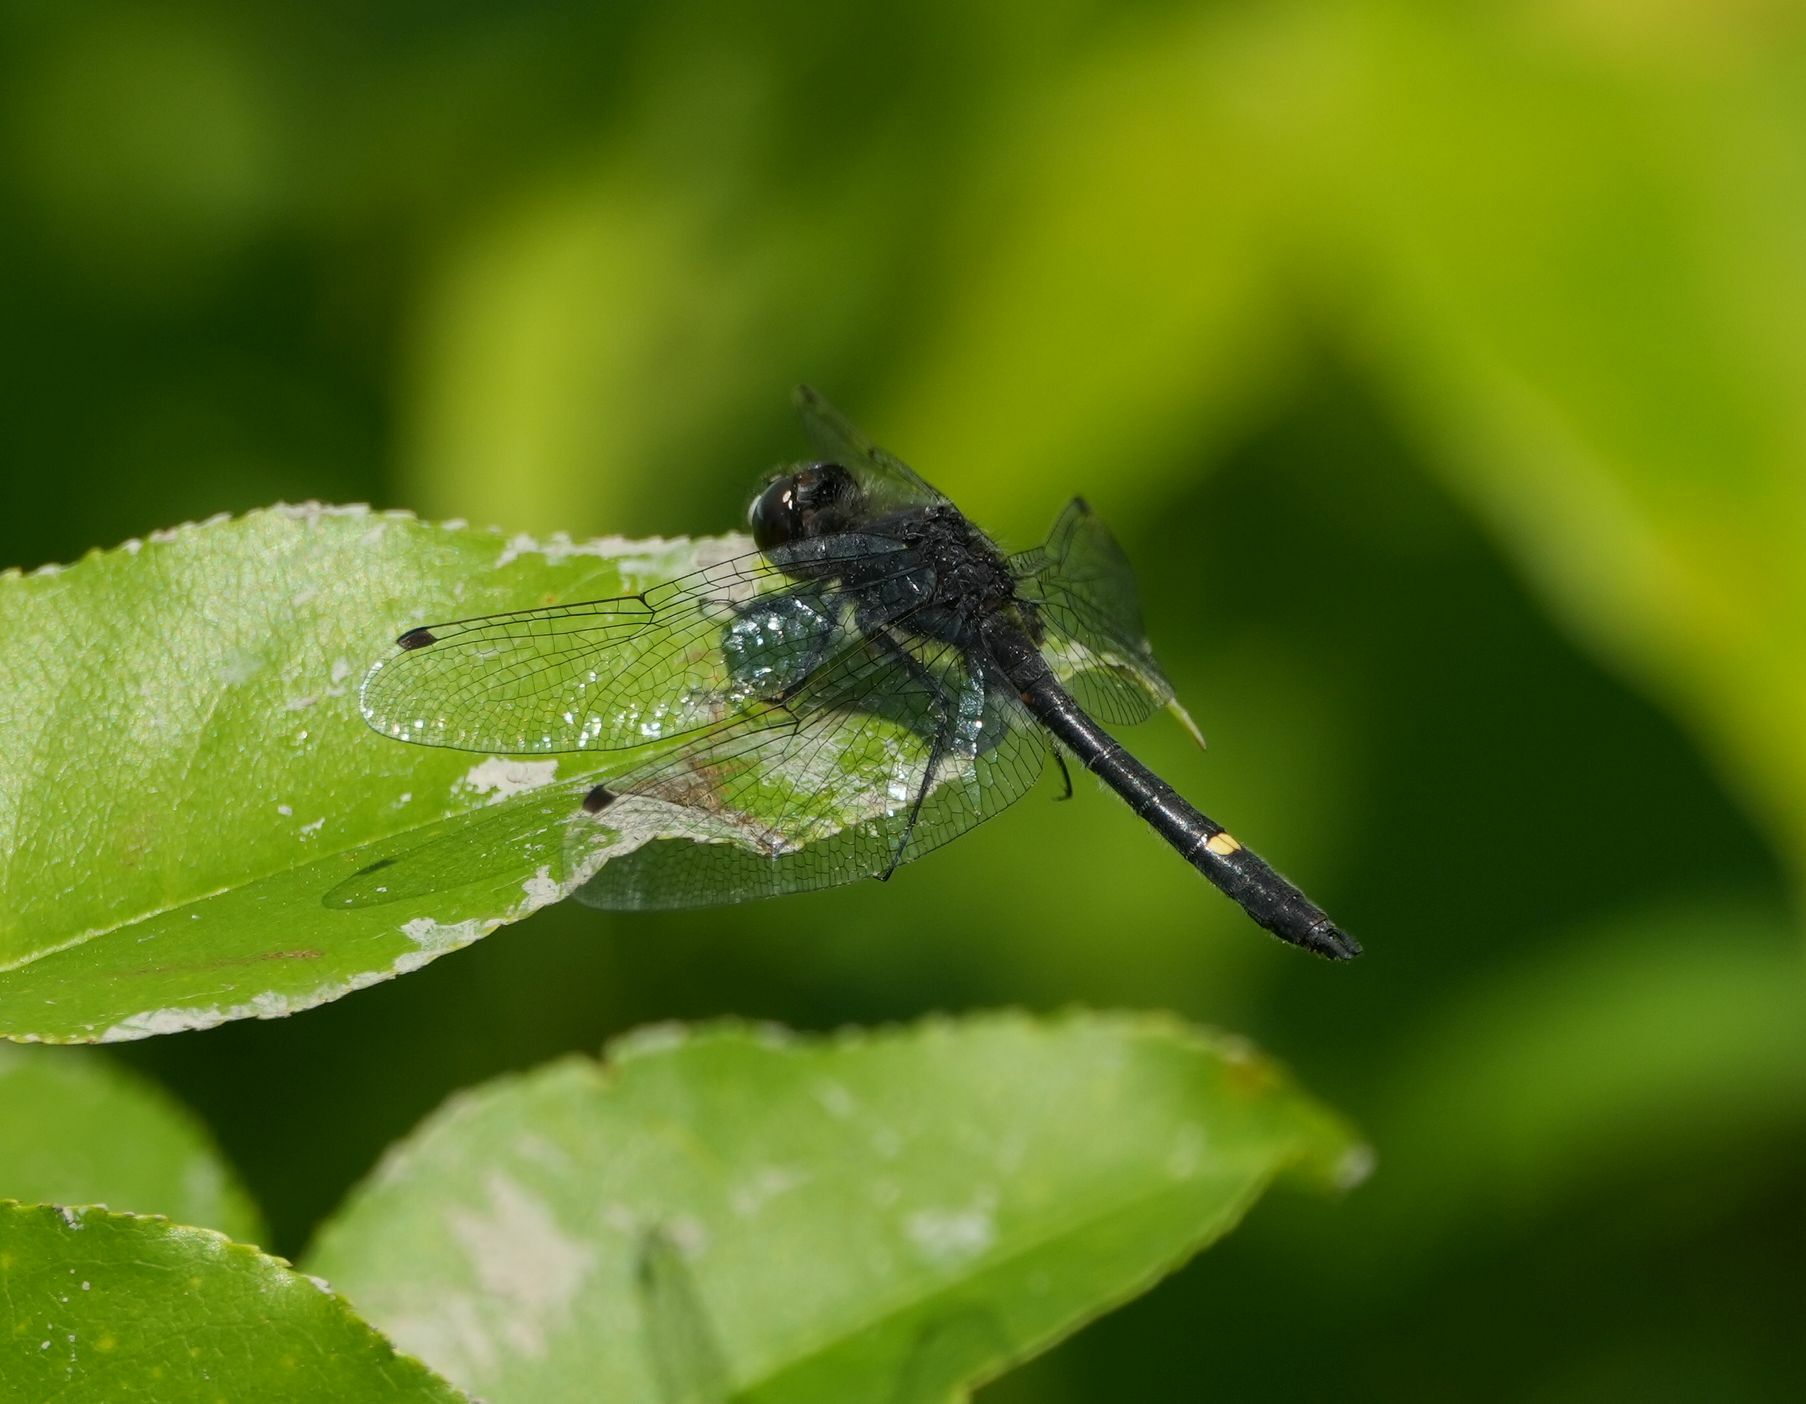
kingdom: Animalia
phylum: Arthropoda
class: Insecta
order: Odonata
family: Libellulidae
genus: Leucorrhinia
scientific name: Leucorrhinia intacta
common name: Dot-tailed whiteface
